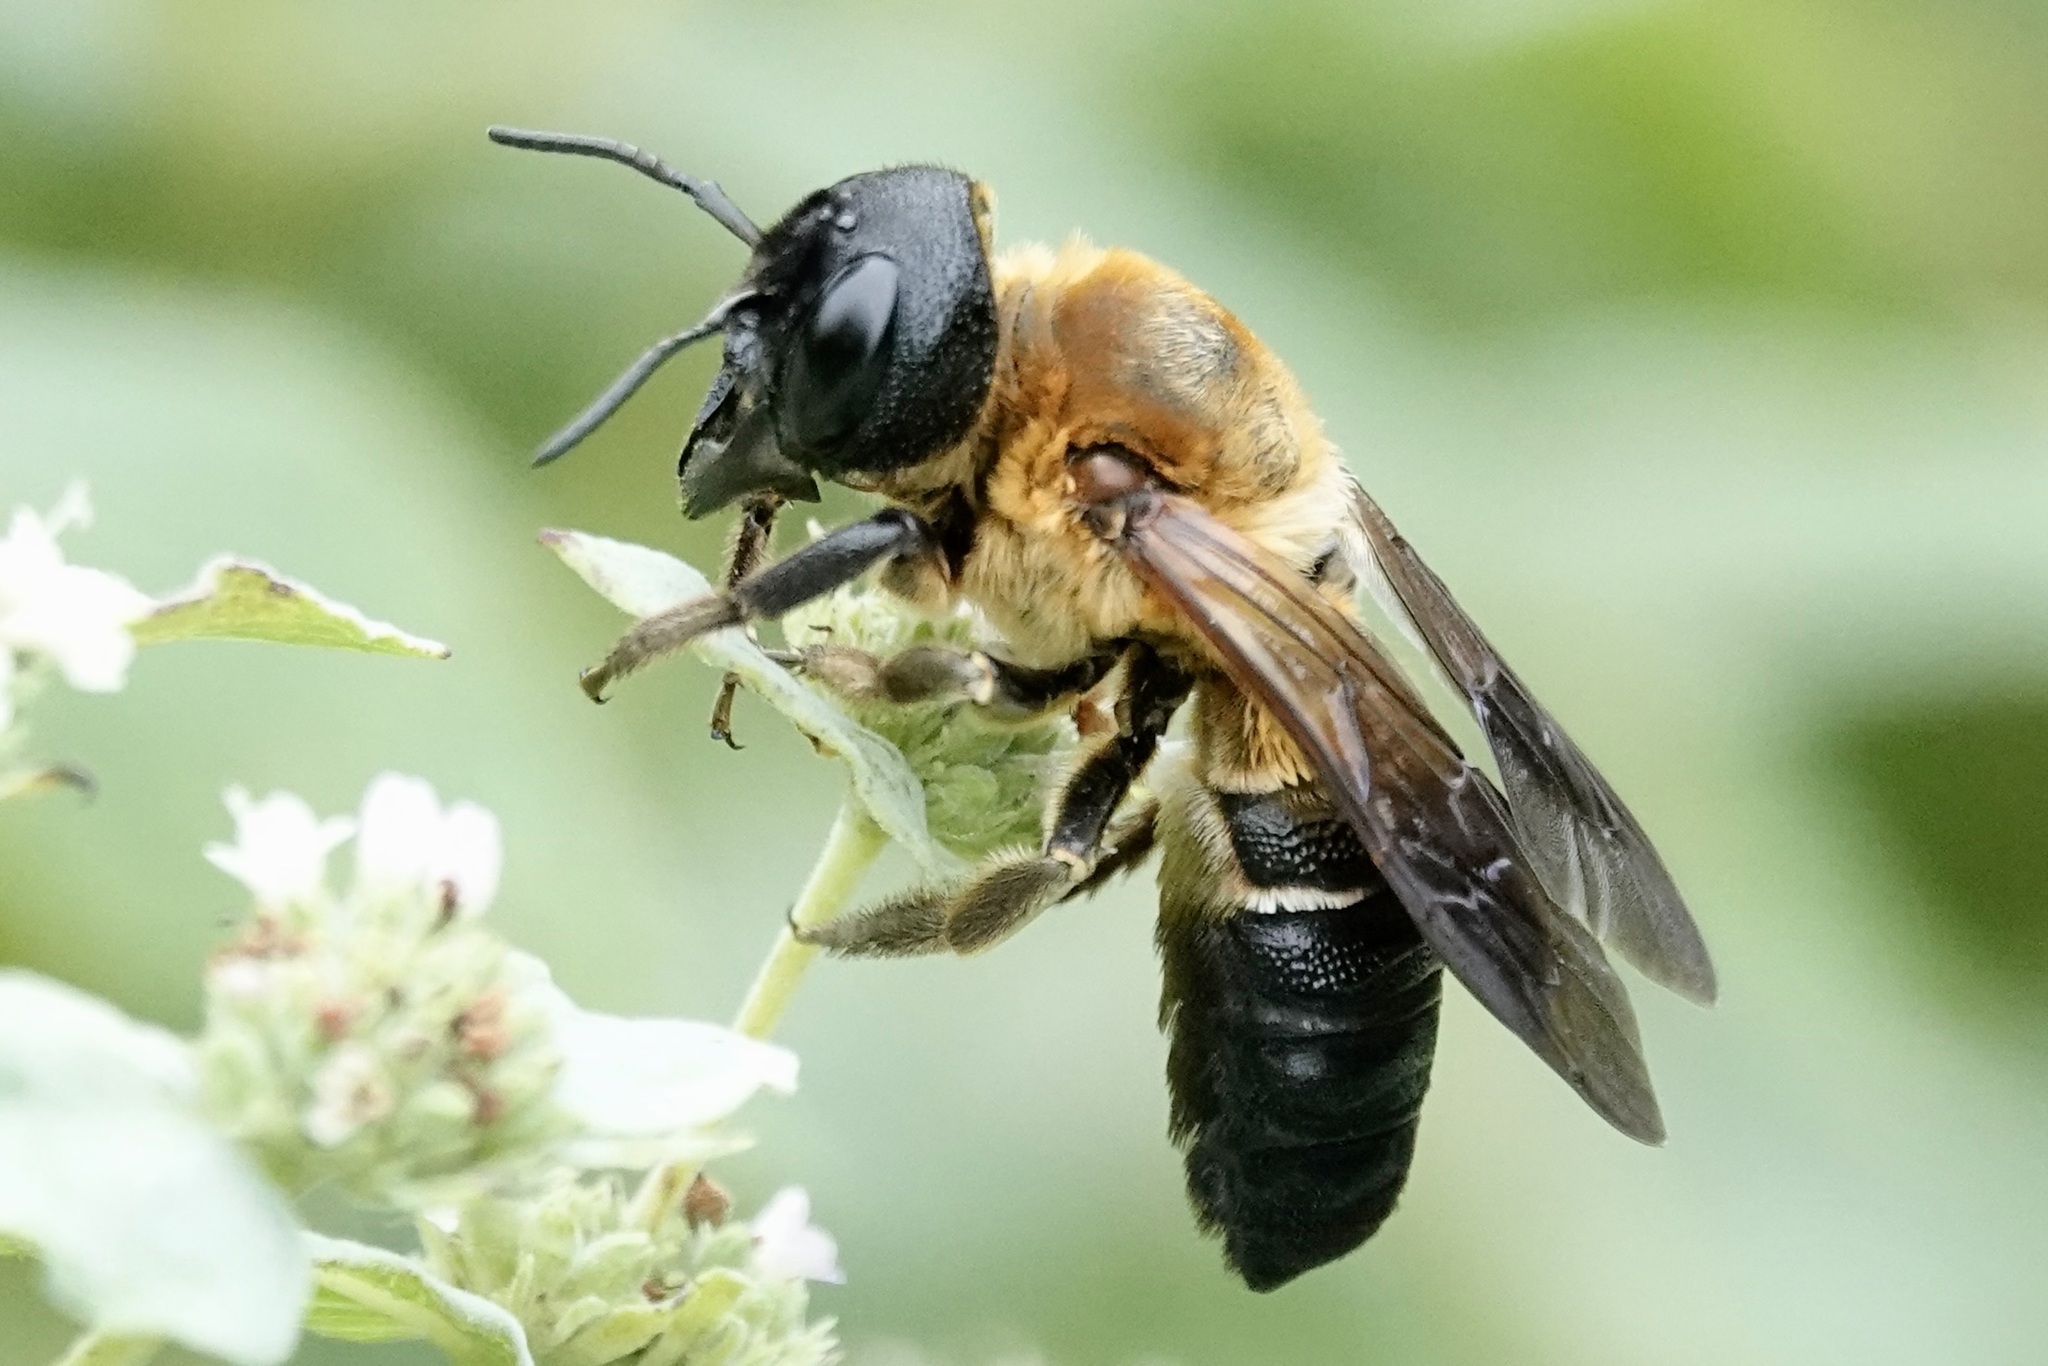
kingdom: Animalia
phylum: Arthropoda
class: Insecta
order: Hymenoptera
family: Megachilidae
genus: Megachile
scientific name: Megachile sculpturalis
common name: Sculptured resin bee
